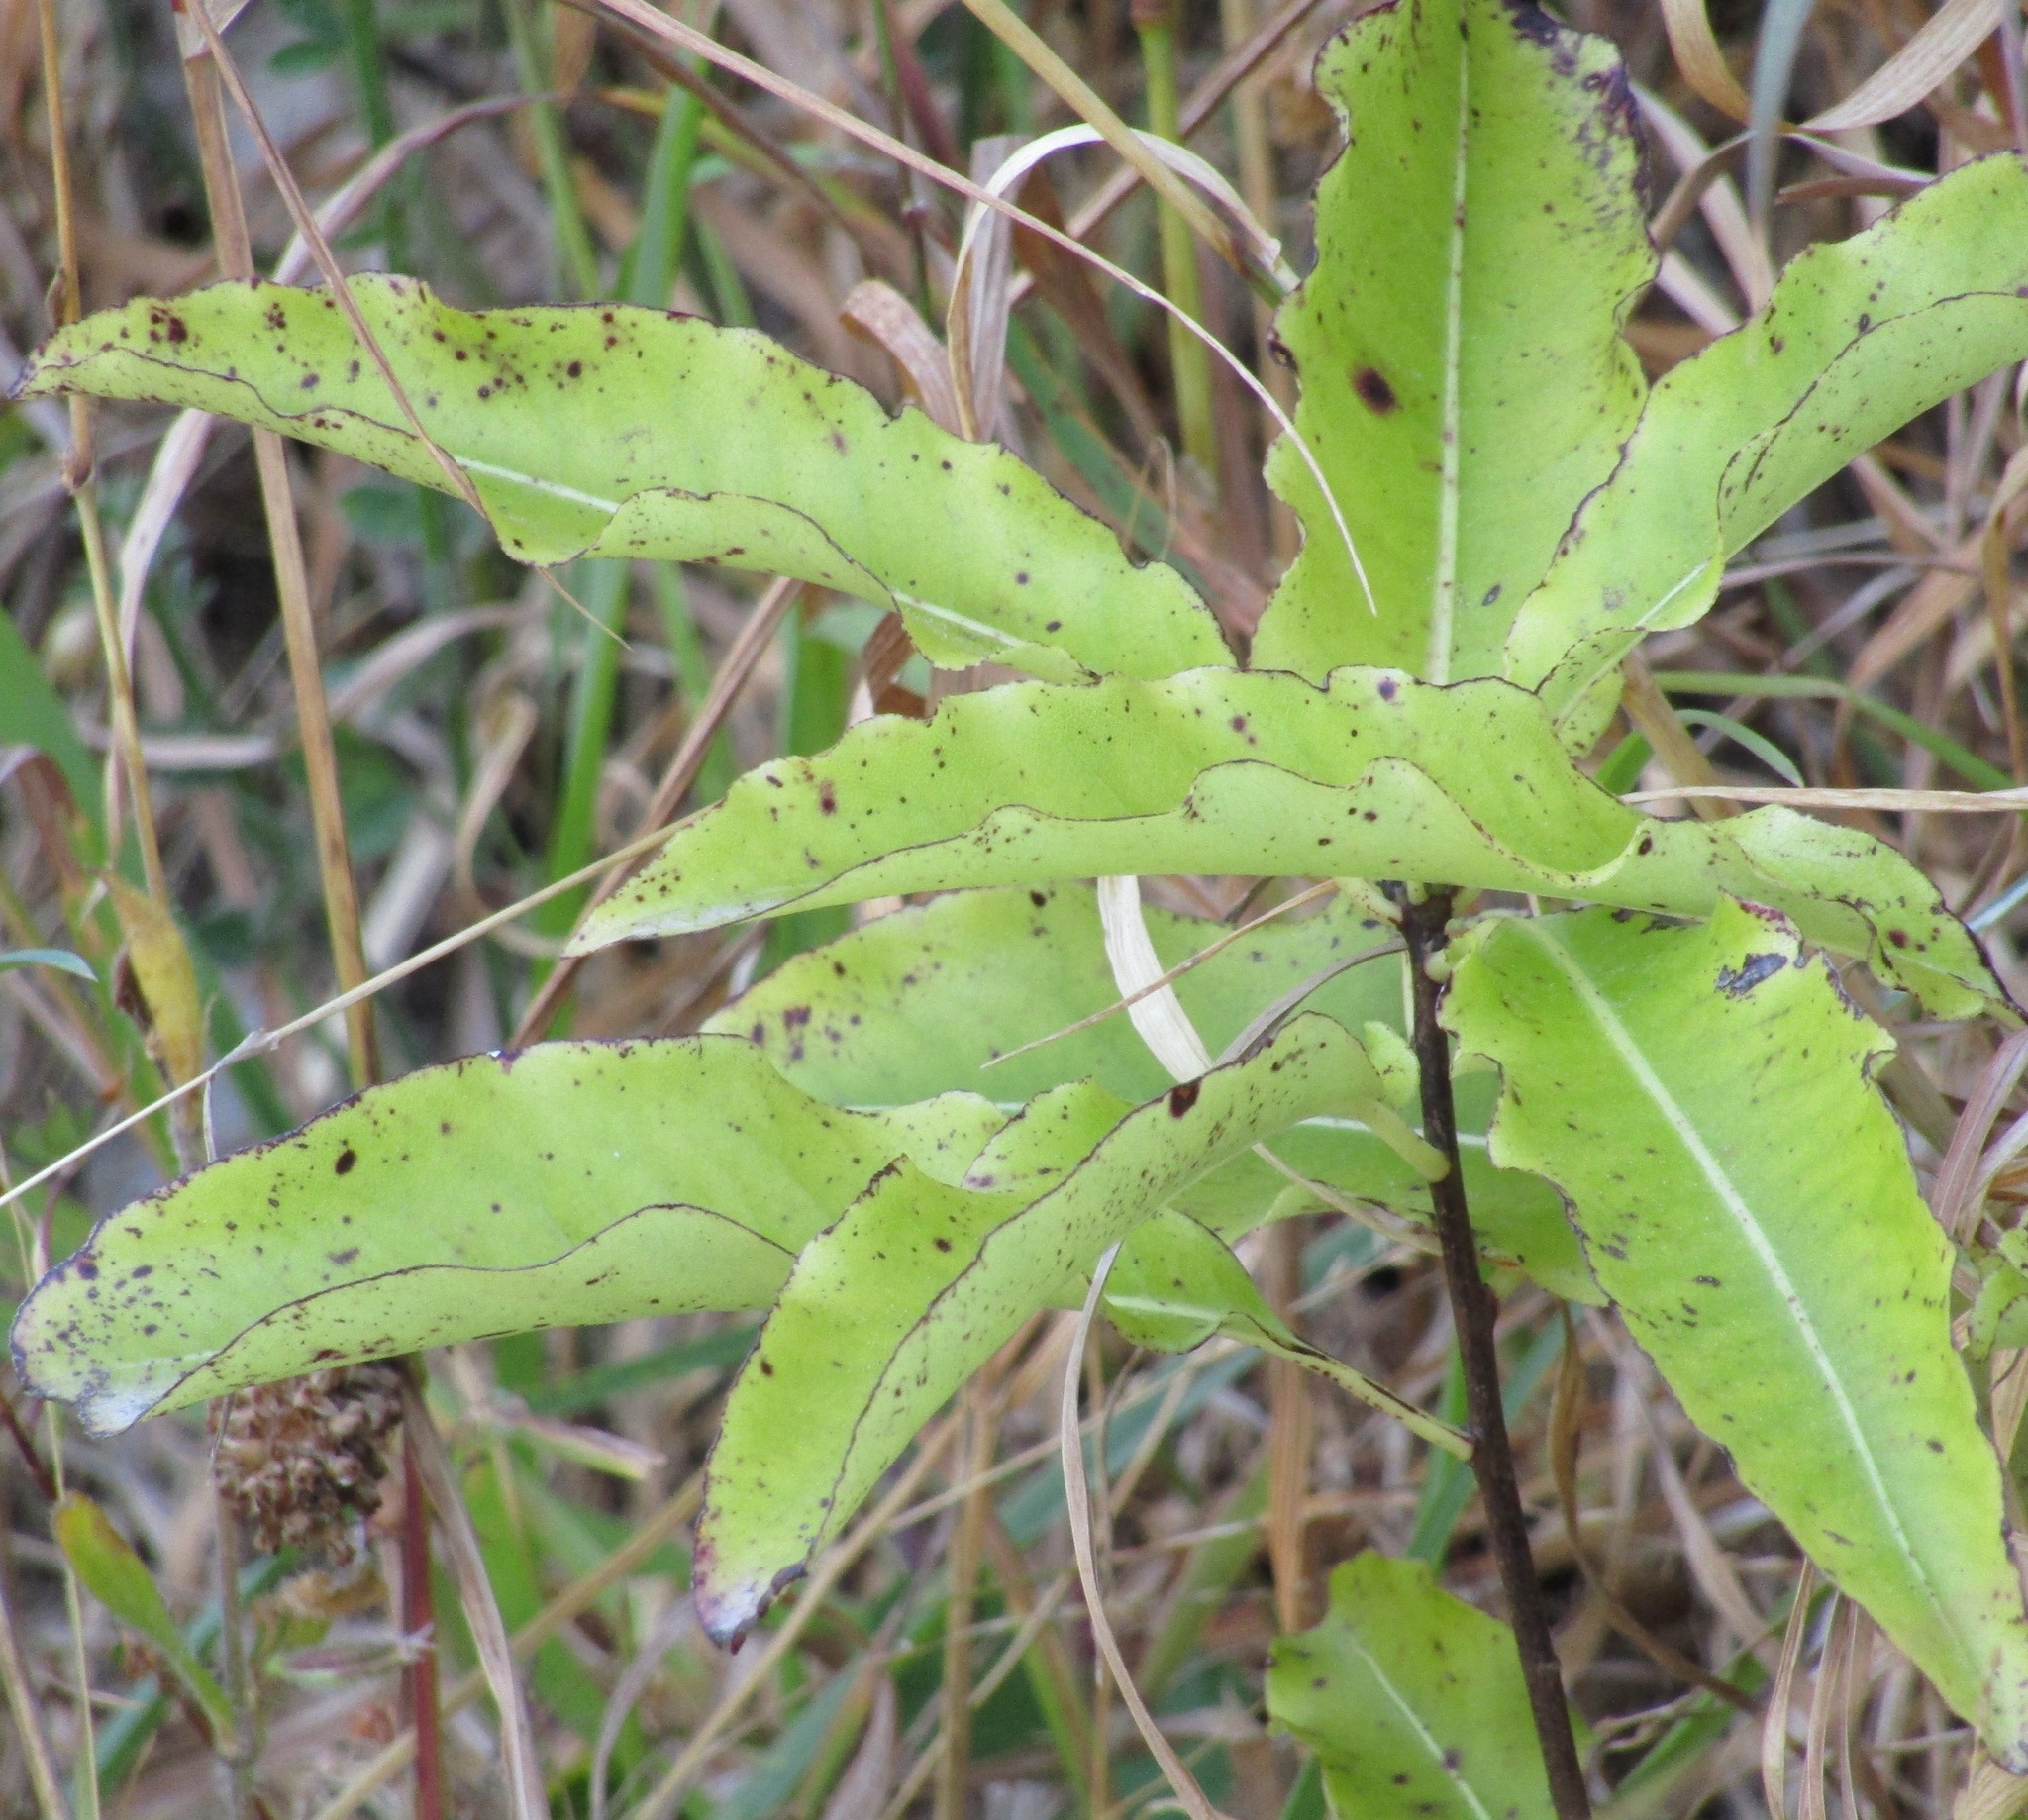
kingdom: Plantae
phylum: Tracheophyta
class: Magnoliopsida
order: Apiales
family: Pittosporaceae
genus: Pittosporum
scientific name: Pittosporum eugenioides
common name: Lemonwood
